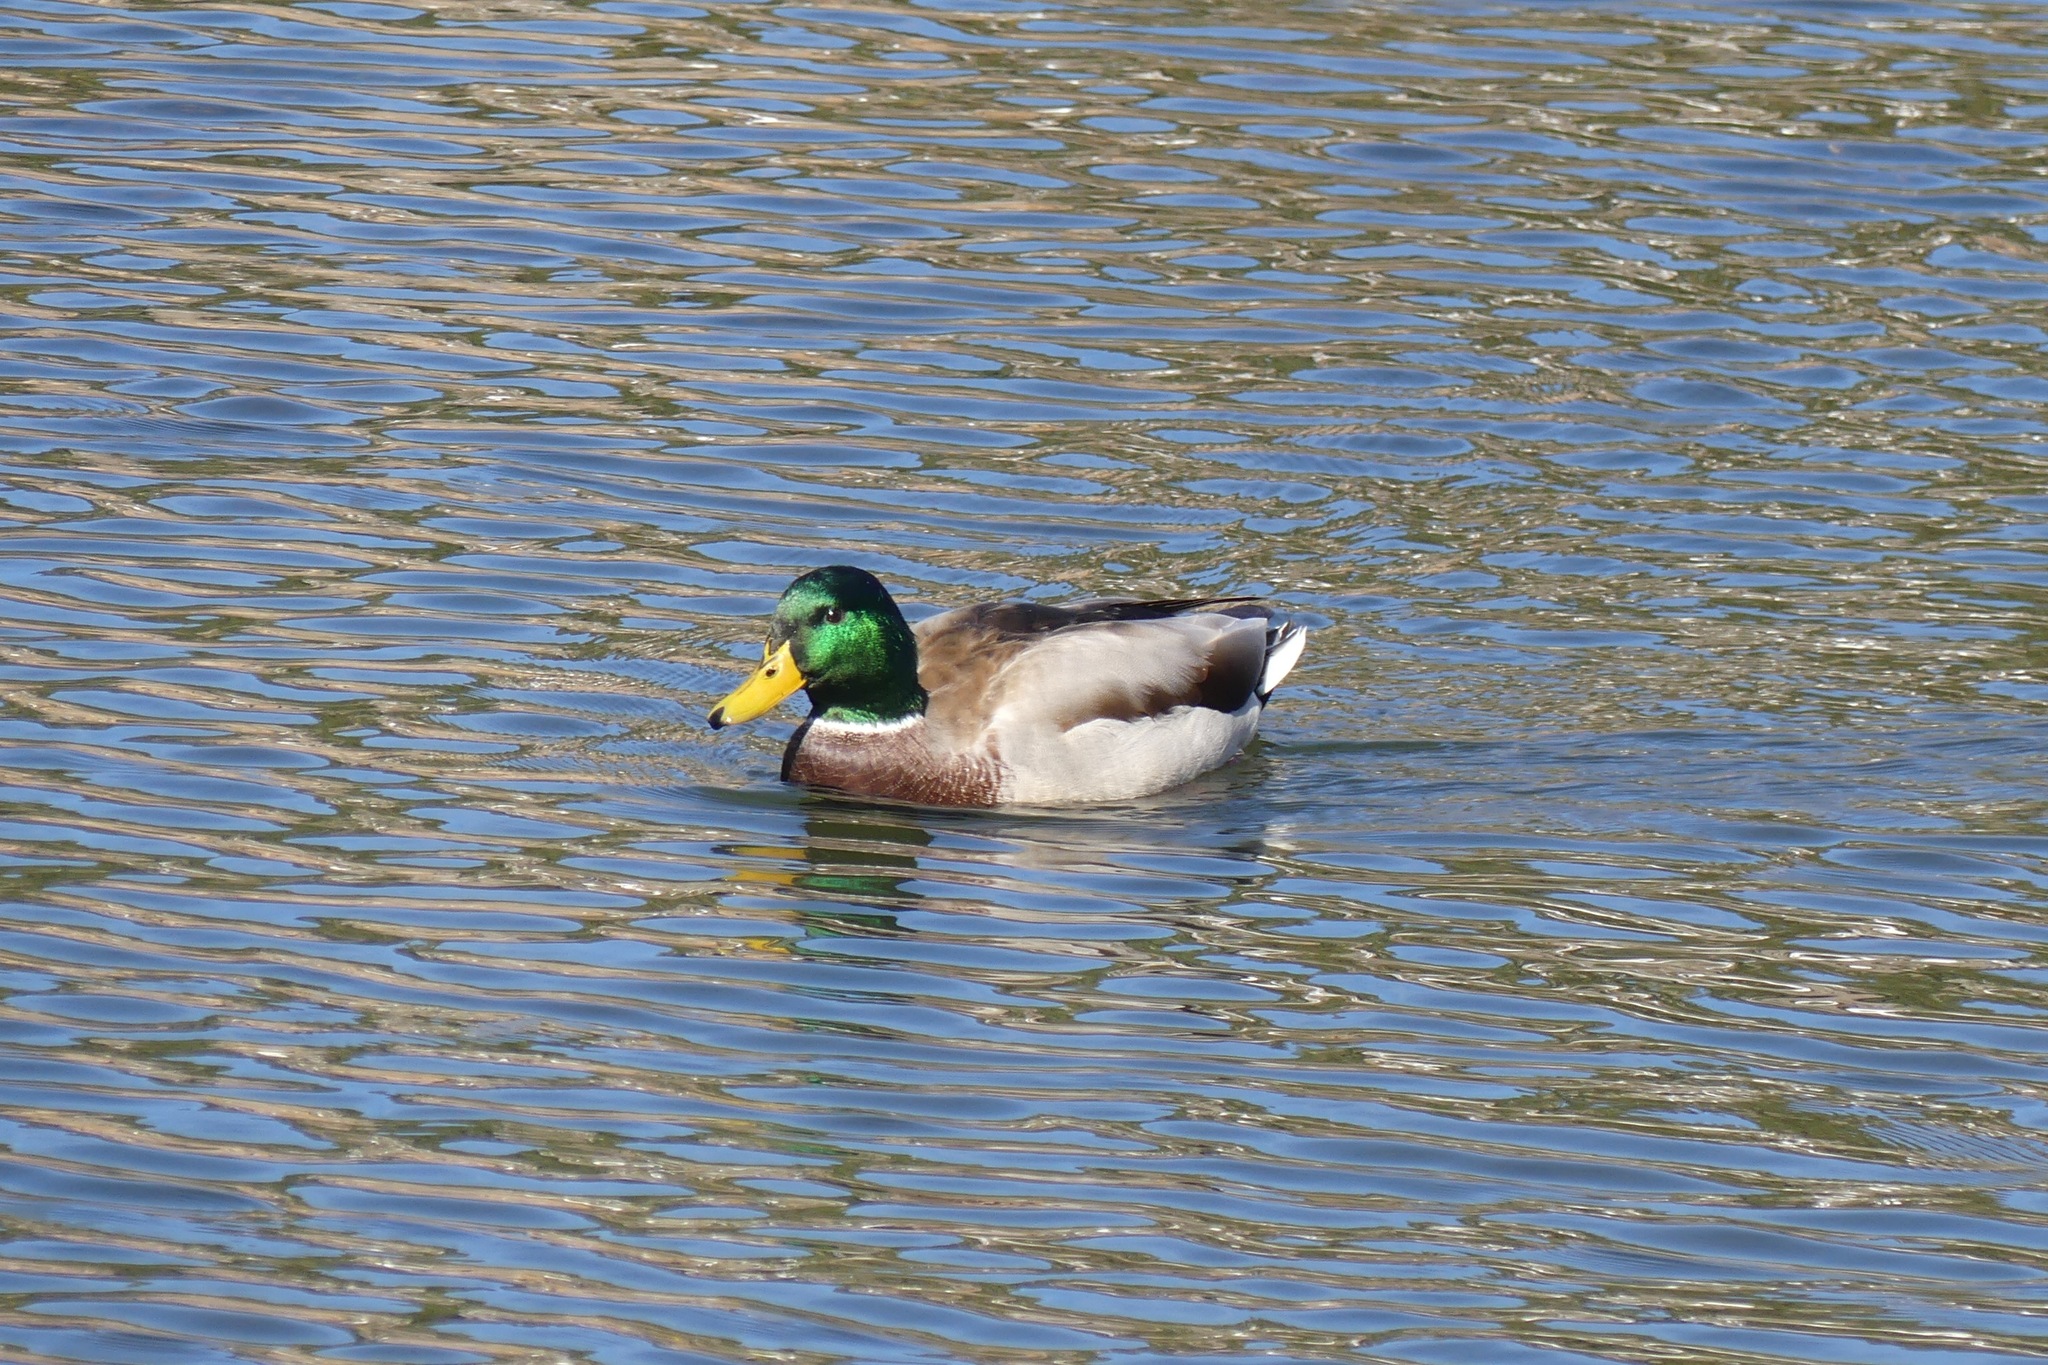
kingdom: Animalia
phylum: Chordata
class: Aves
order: Anseriformes
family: Anatidae
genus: Anas
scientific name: Anas platyrhynchos
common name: Mallard
